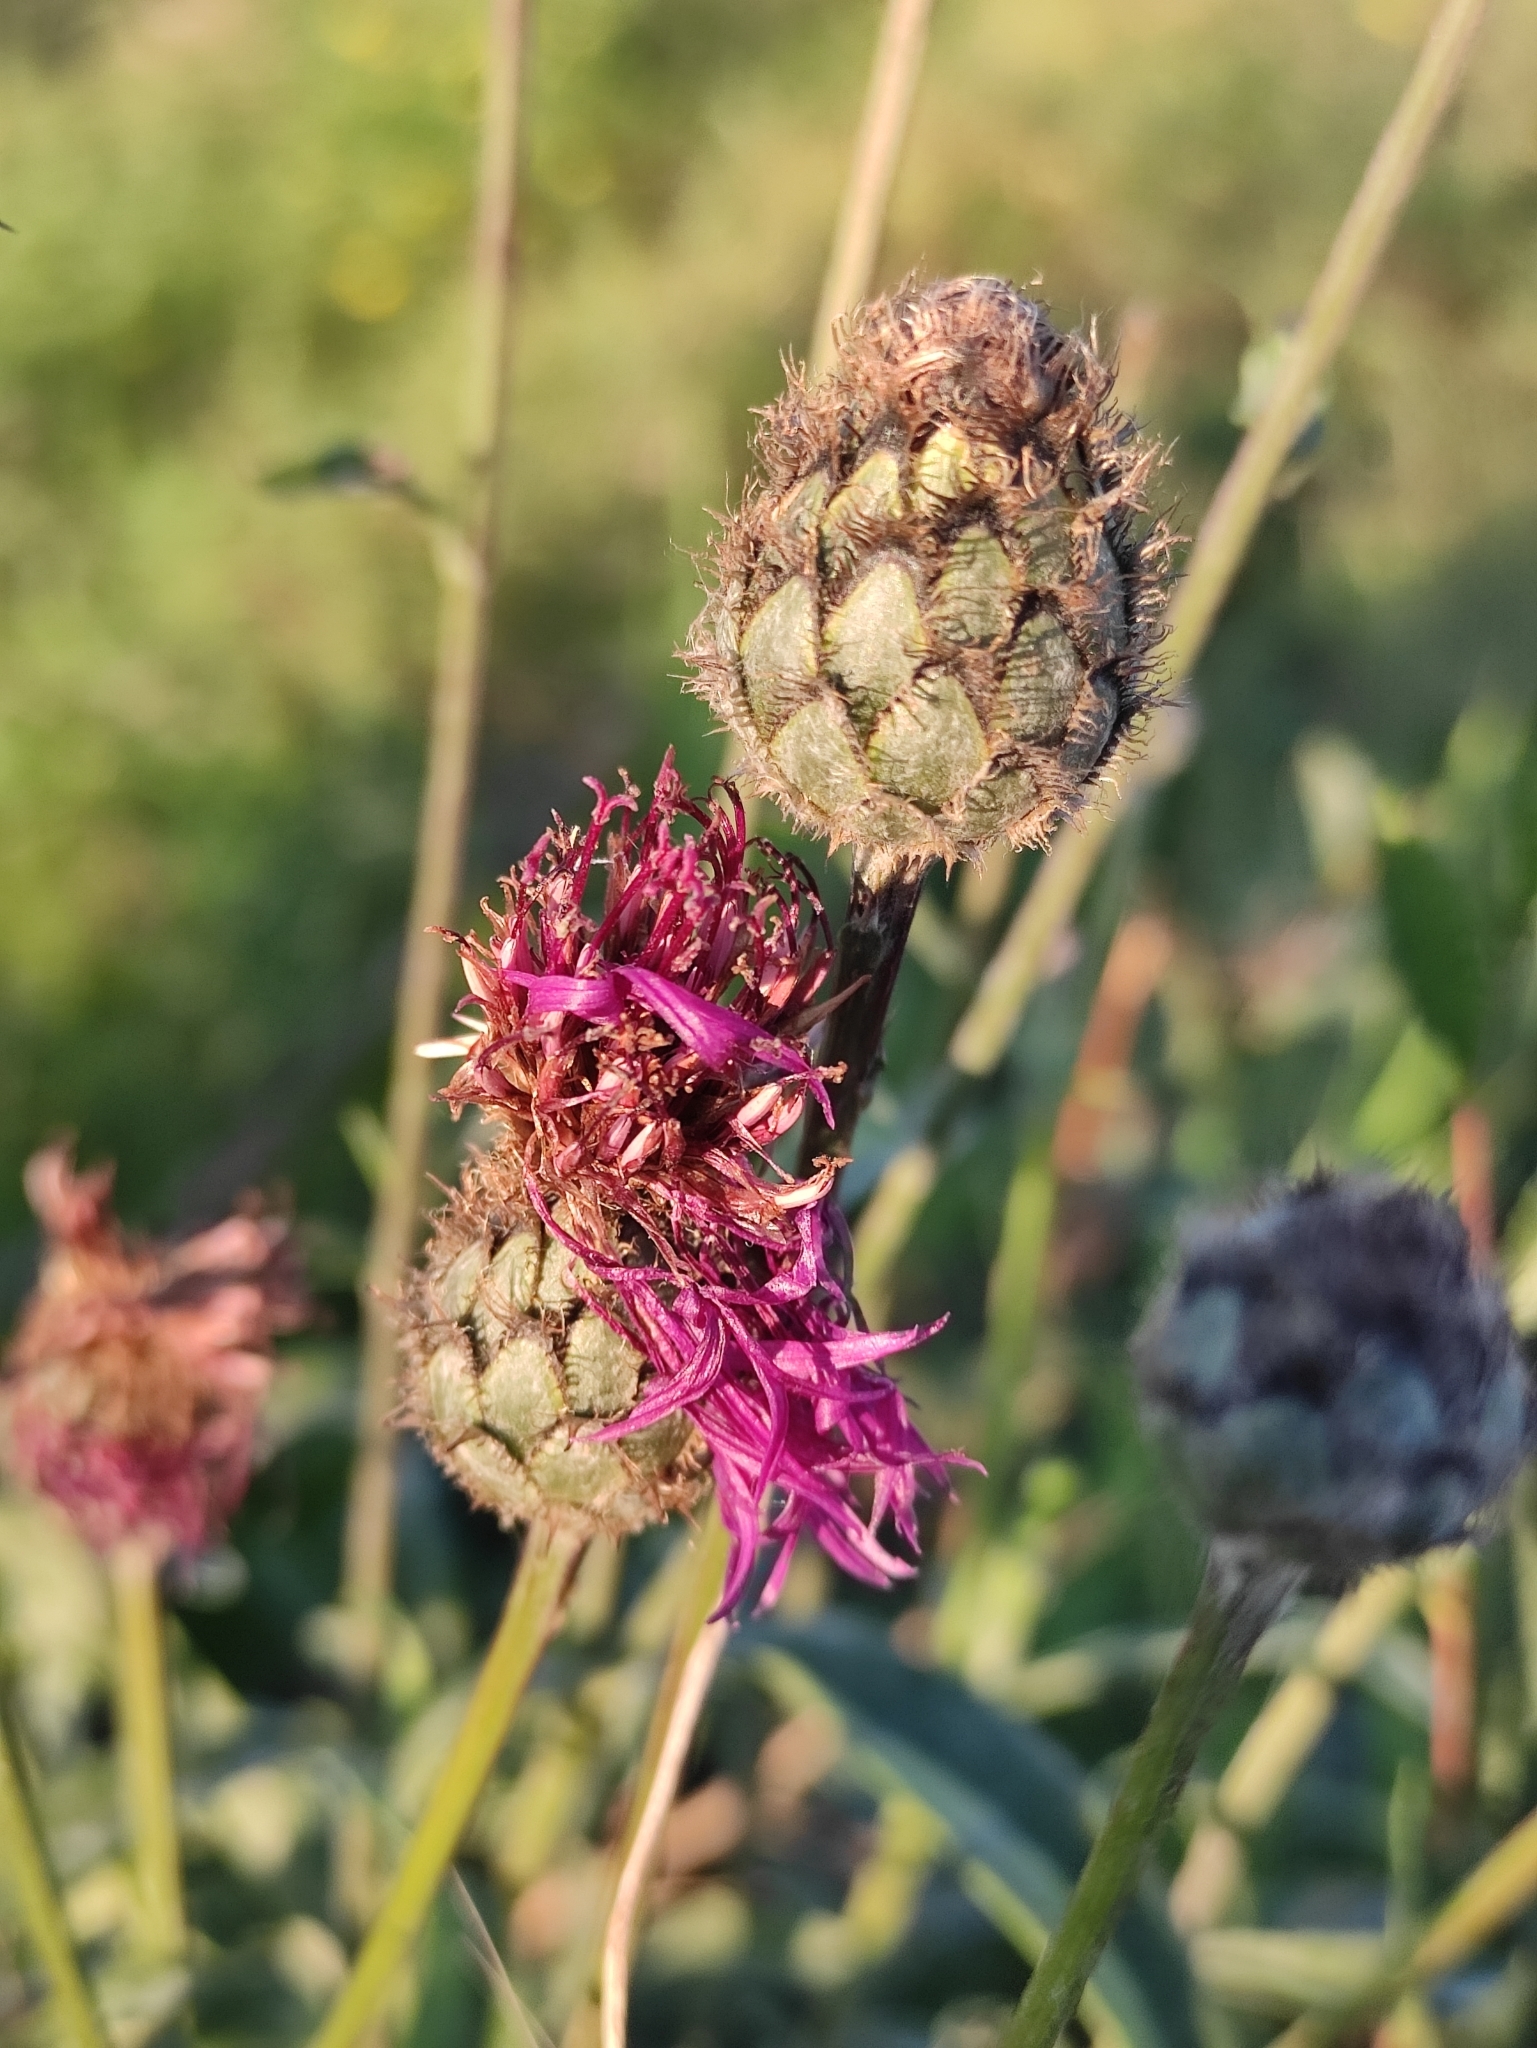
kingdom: Plantae
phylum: Tracheophyta
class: Magnoliopsida
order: Asterales
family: Asteraceae
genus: Centaurea
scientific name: Centaurea scabiosa
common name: Greater knapweed
